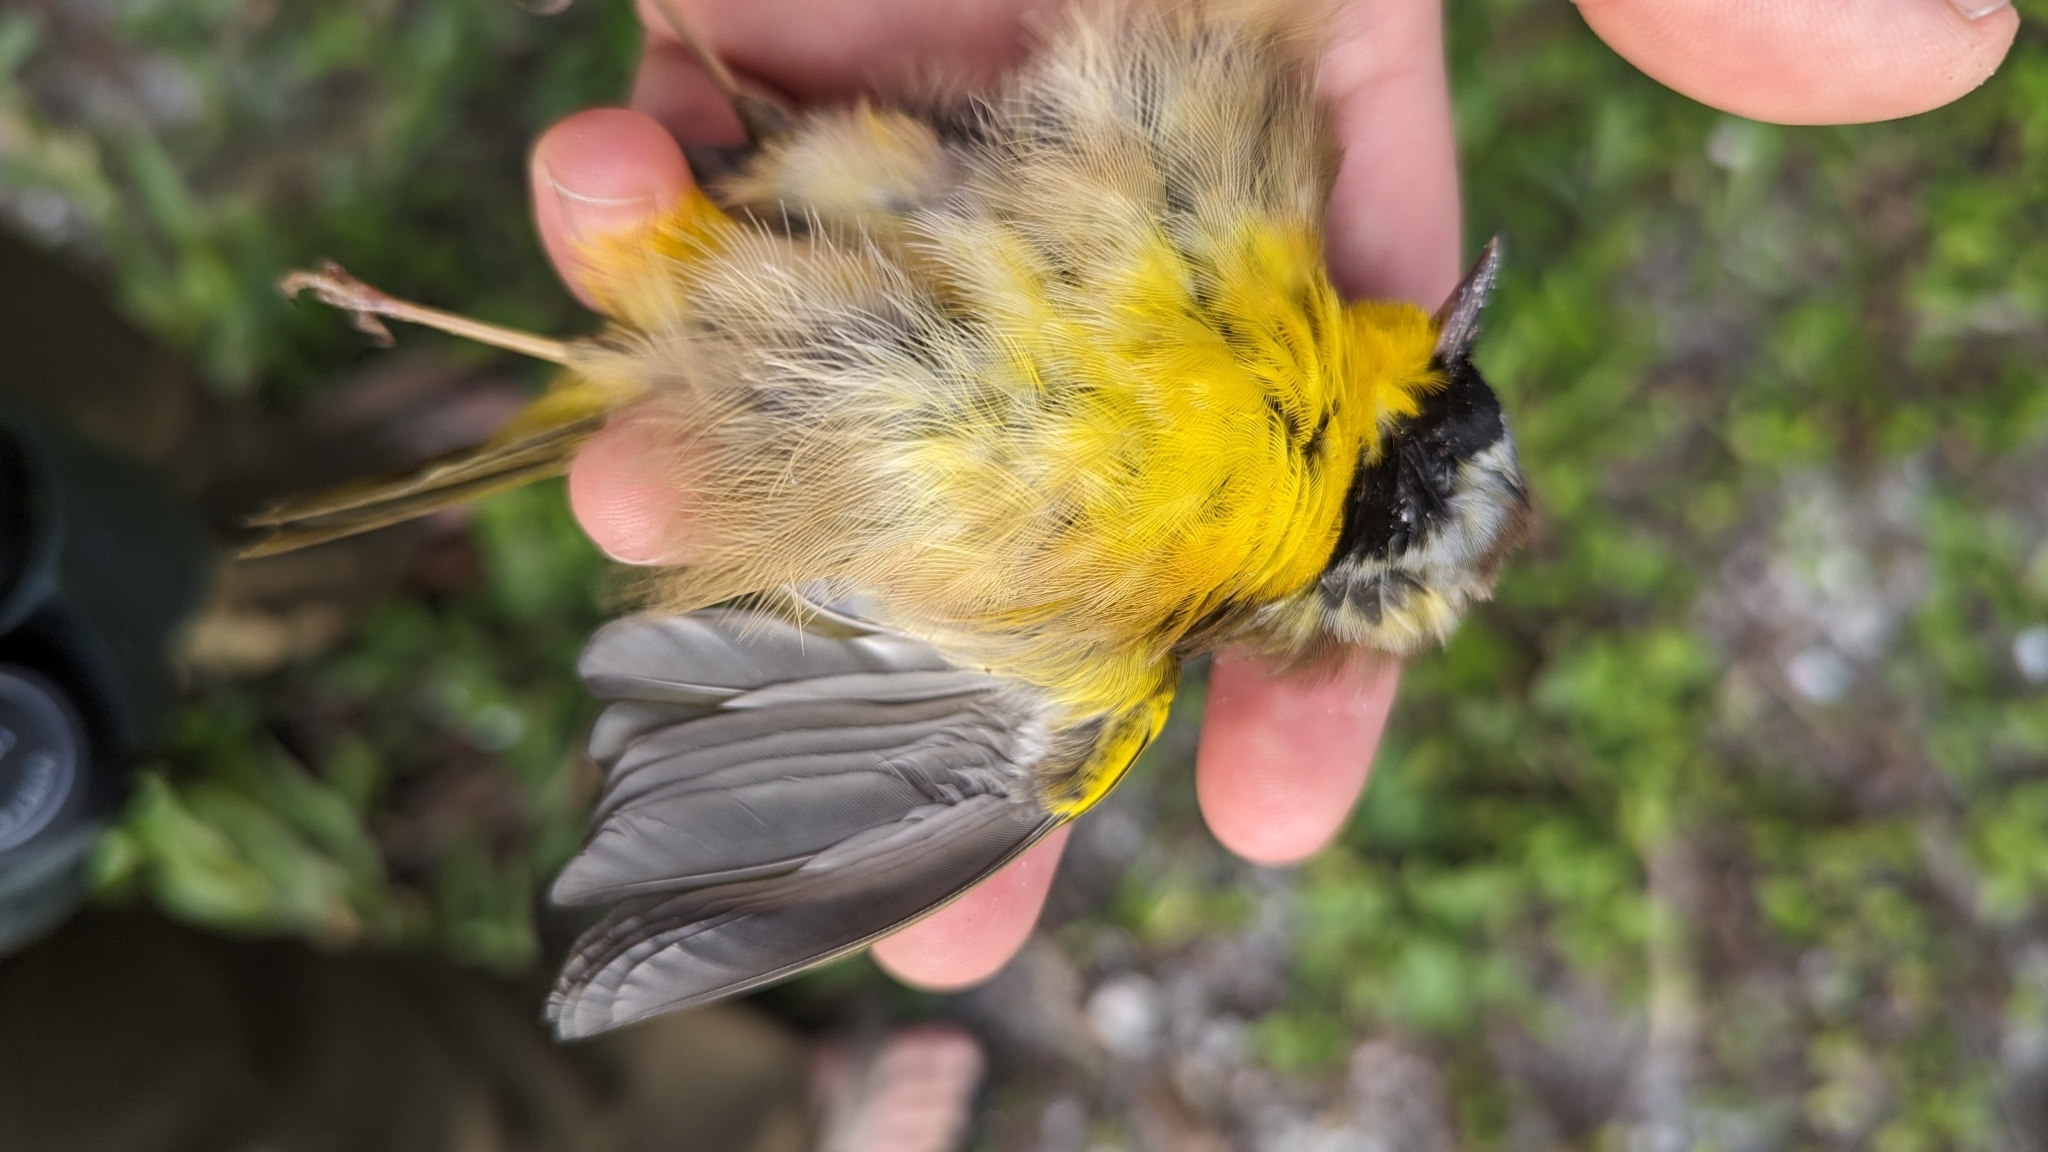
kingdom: Animalia
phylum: Chordata
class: Aves
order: Passeriformes
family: Parulidae
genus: Geothlypis
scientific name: Geothlypis trichas
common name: Common yellowthroat
